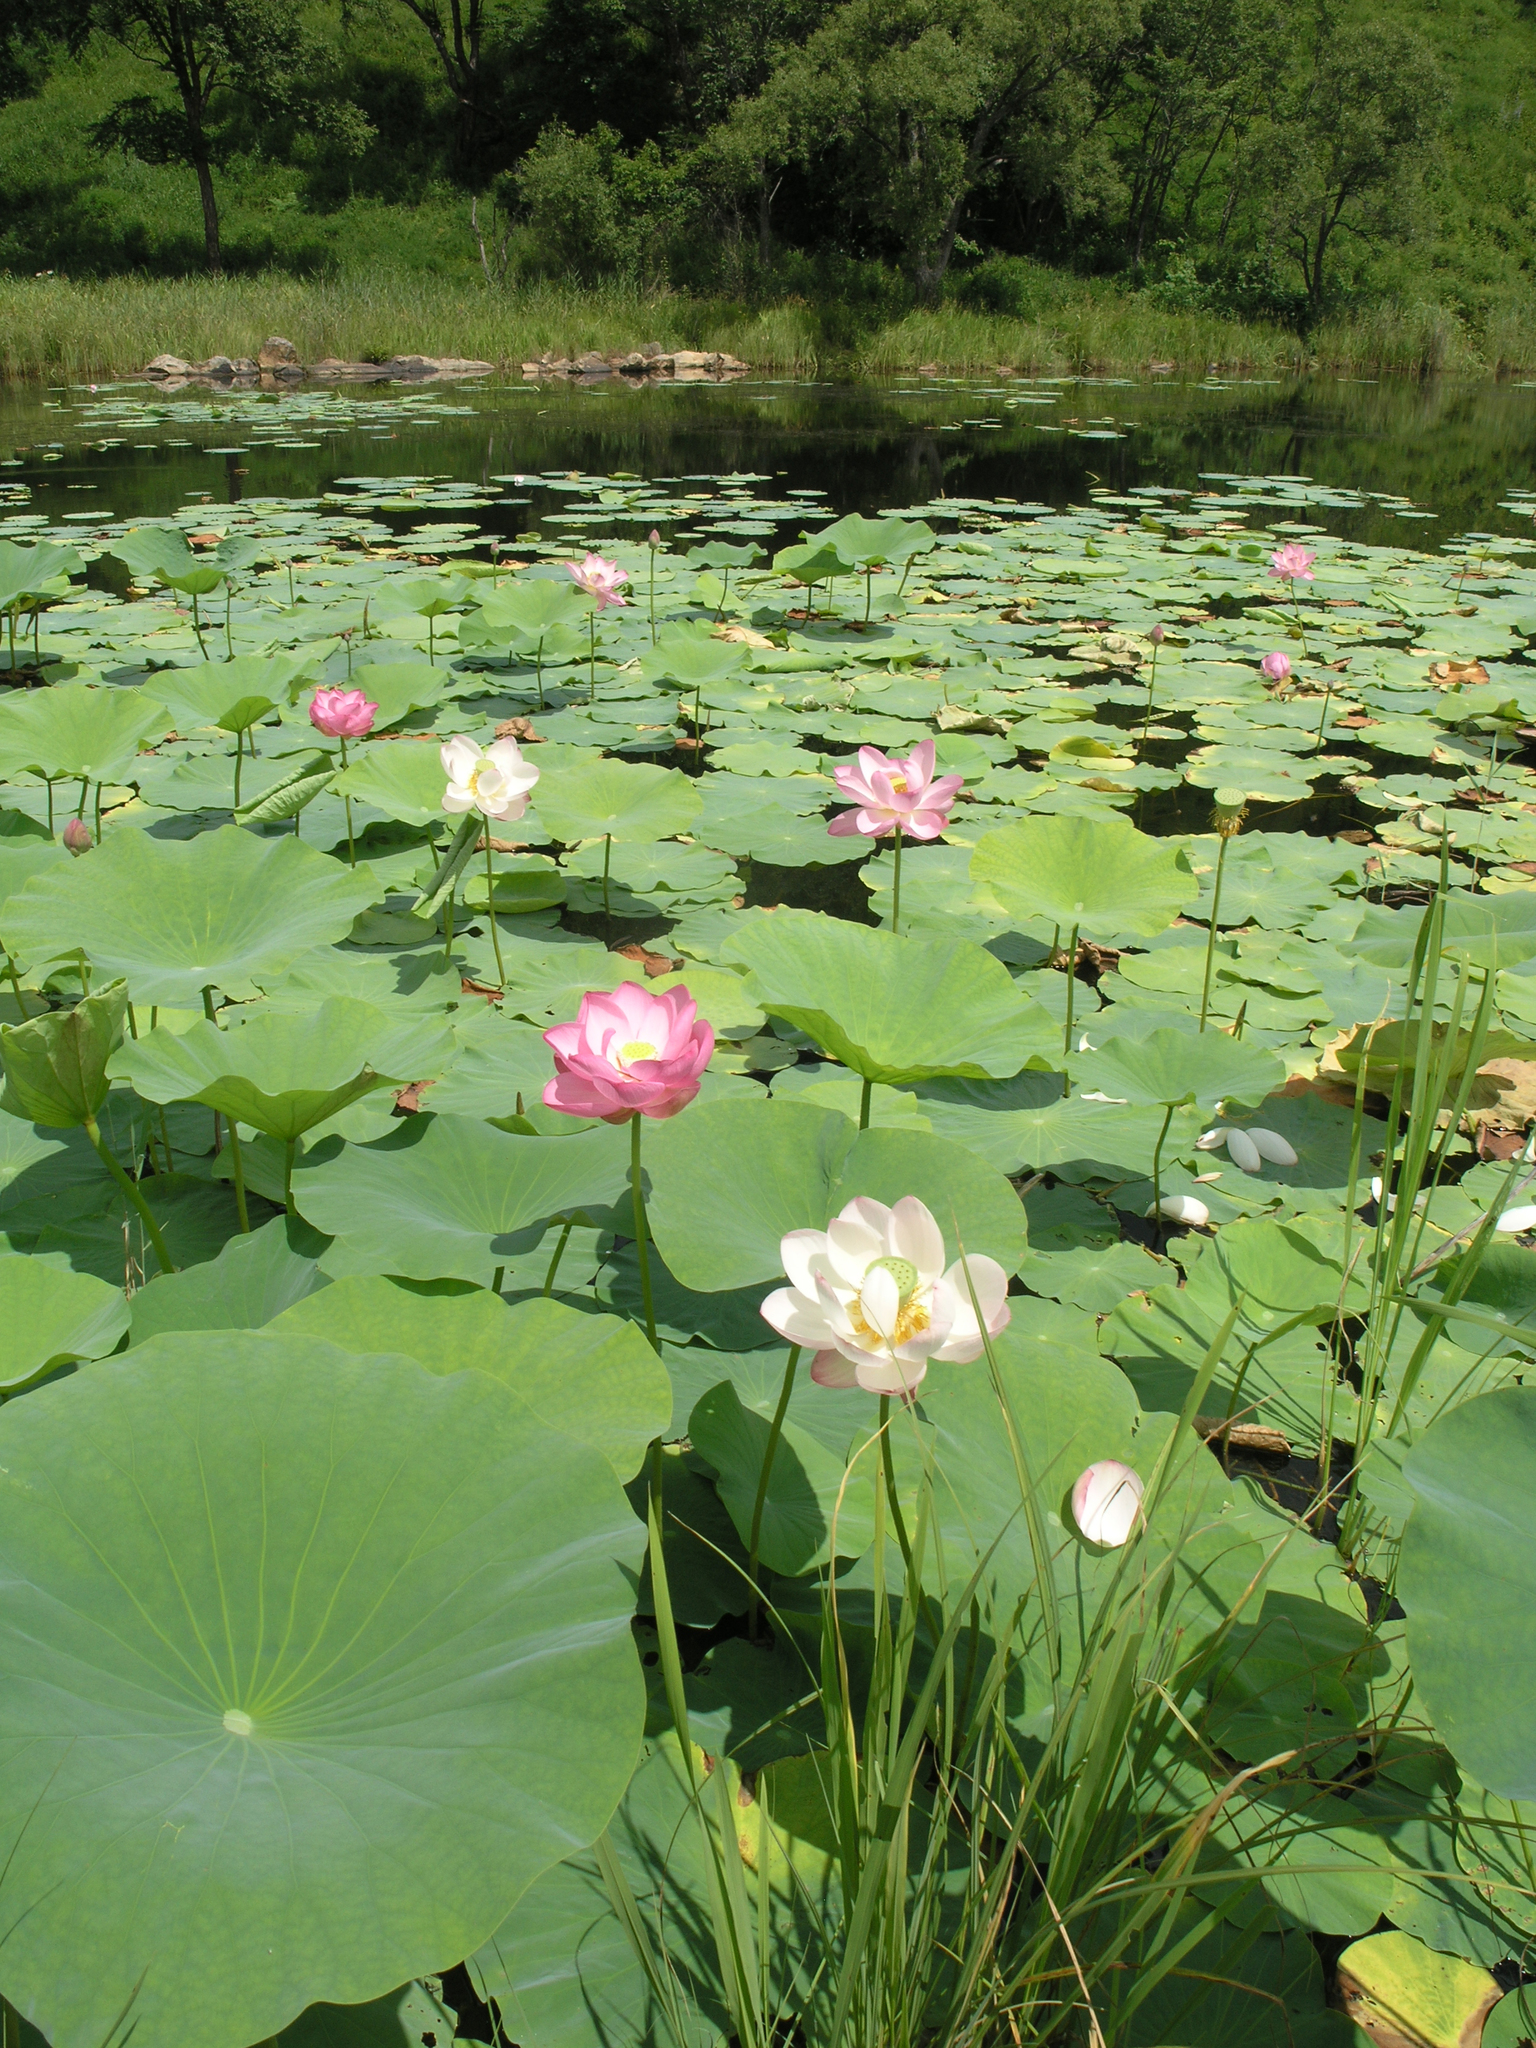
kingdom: Plantae
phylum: Tracheophyta
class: Magnoliopsida
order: Proteales
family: Nelumbonaceae
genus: Nelumbo
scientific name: Nelumbo nucifera
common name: Sacred lotus
